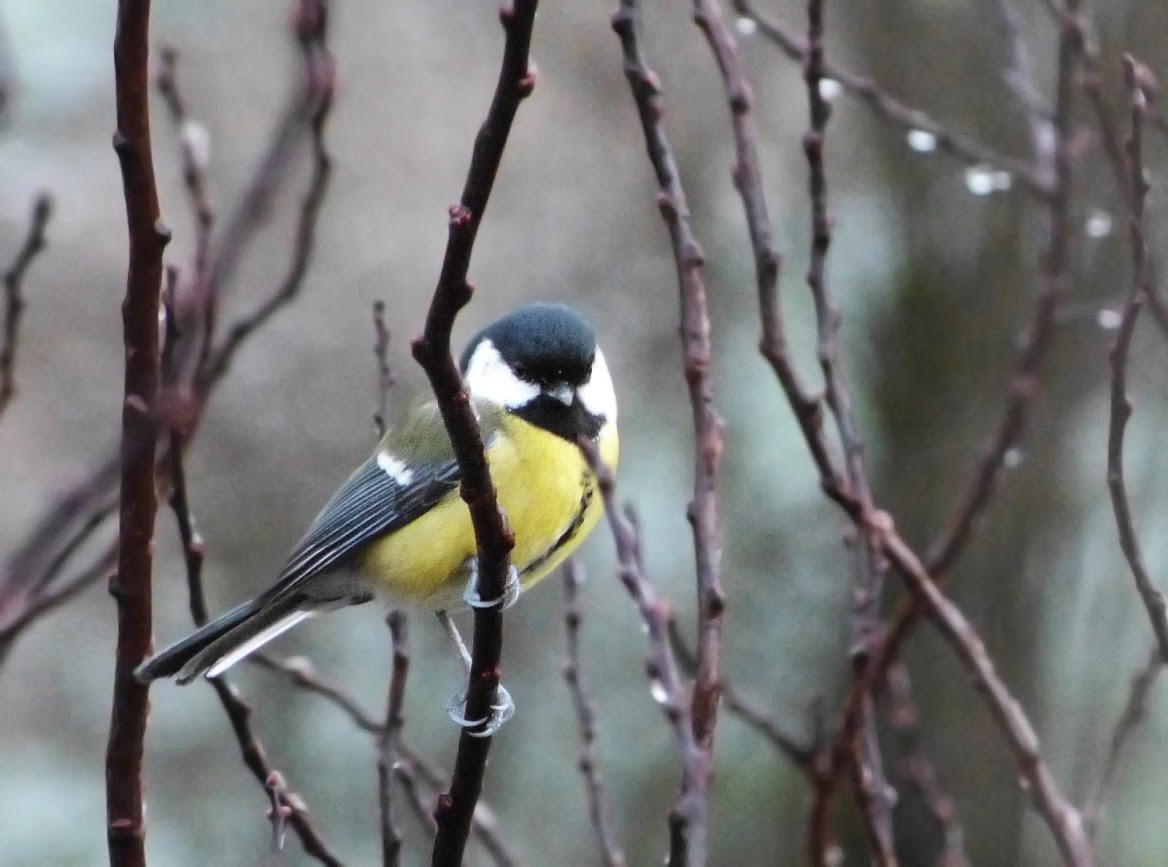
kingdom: Animalia
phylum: Chordata
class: Aves
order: Passeriformes
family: Paridae
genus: Parus
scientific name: Parus major
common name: Great tit
